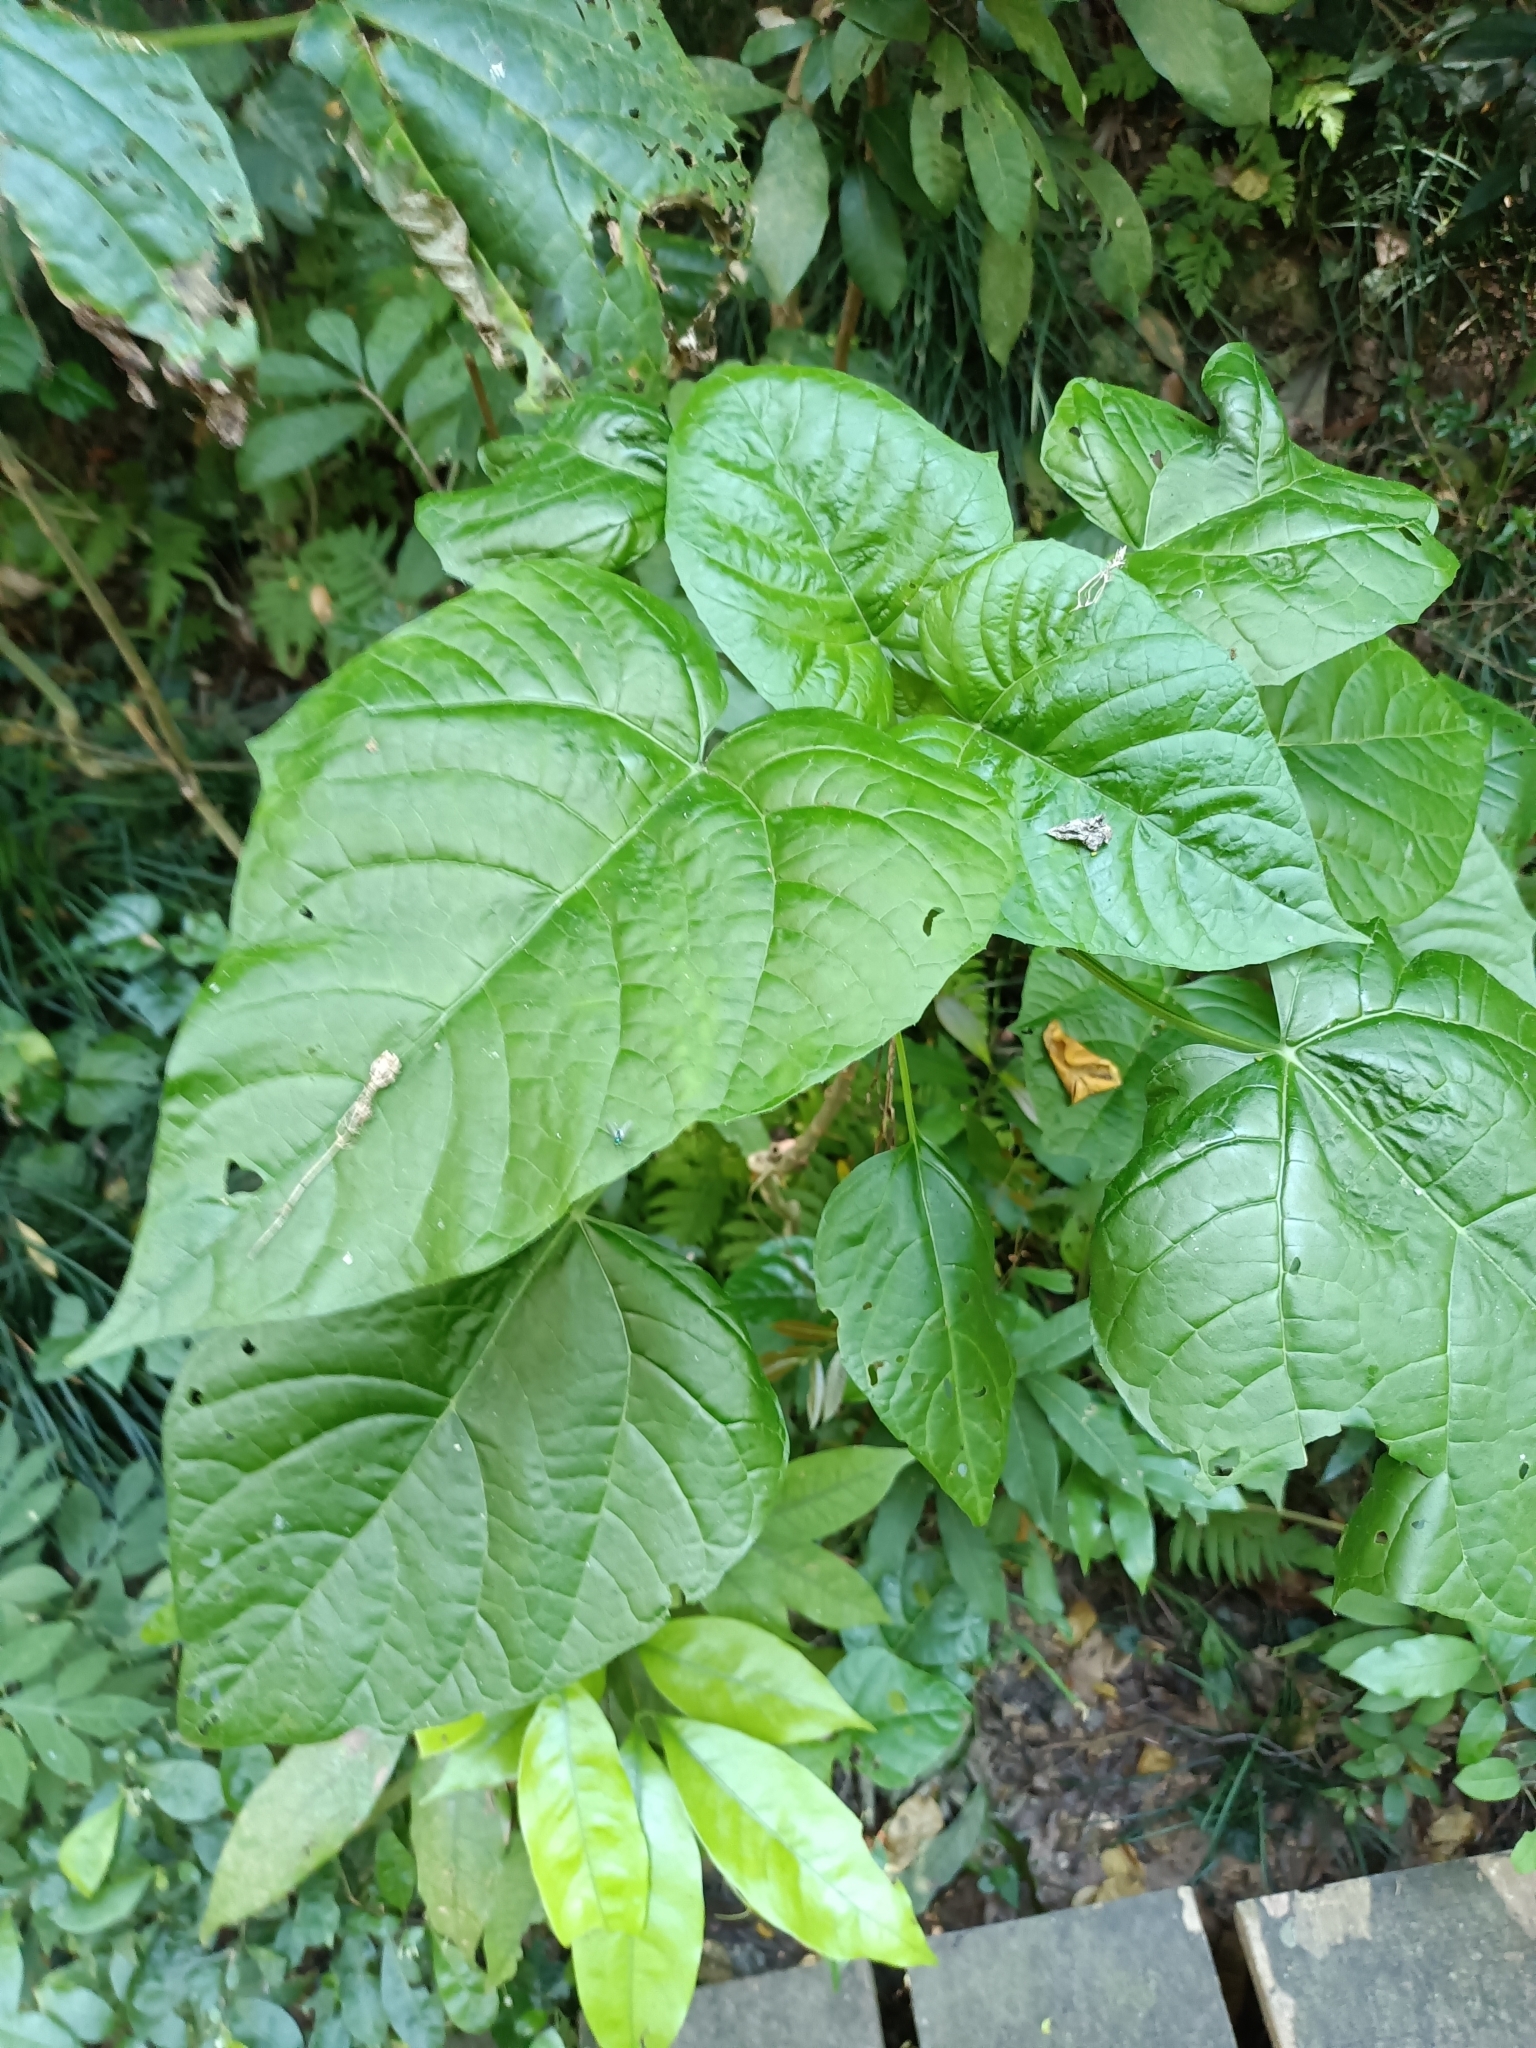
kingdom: Plantae
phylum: Tracheophyta
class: Magnoliopsida
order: Lamiales
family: Lamiaceae
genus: Clerodendrum
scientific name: Clerodendrum japonicum
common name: Japanese glorybower
